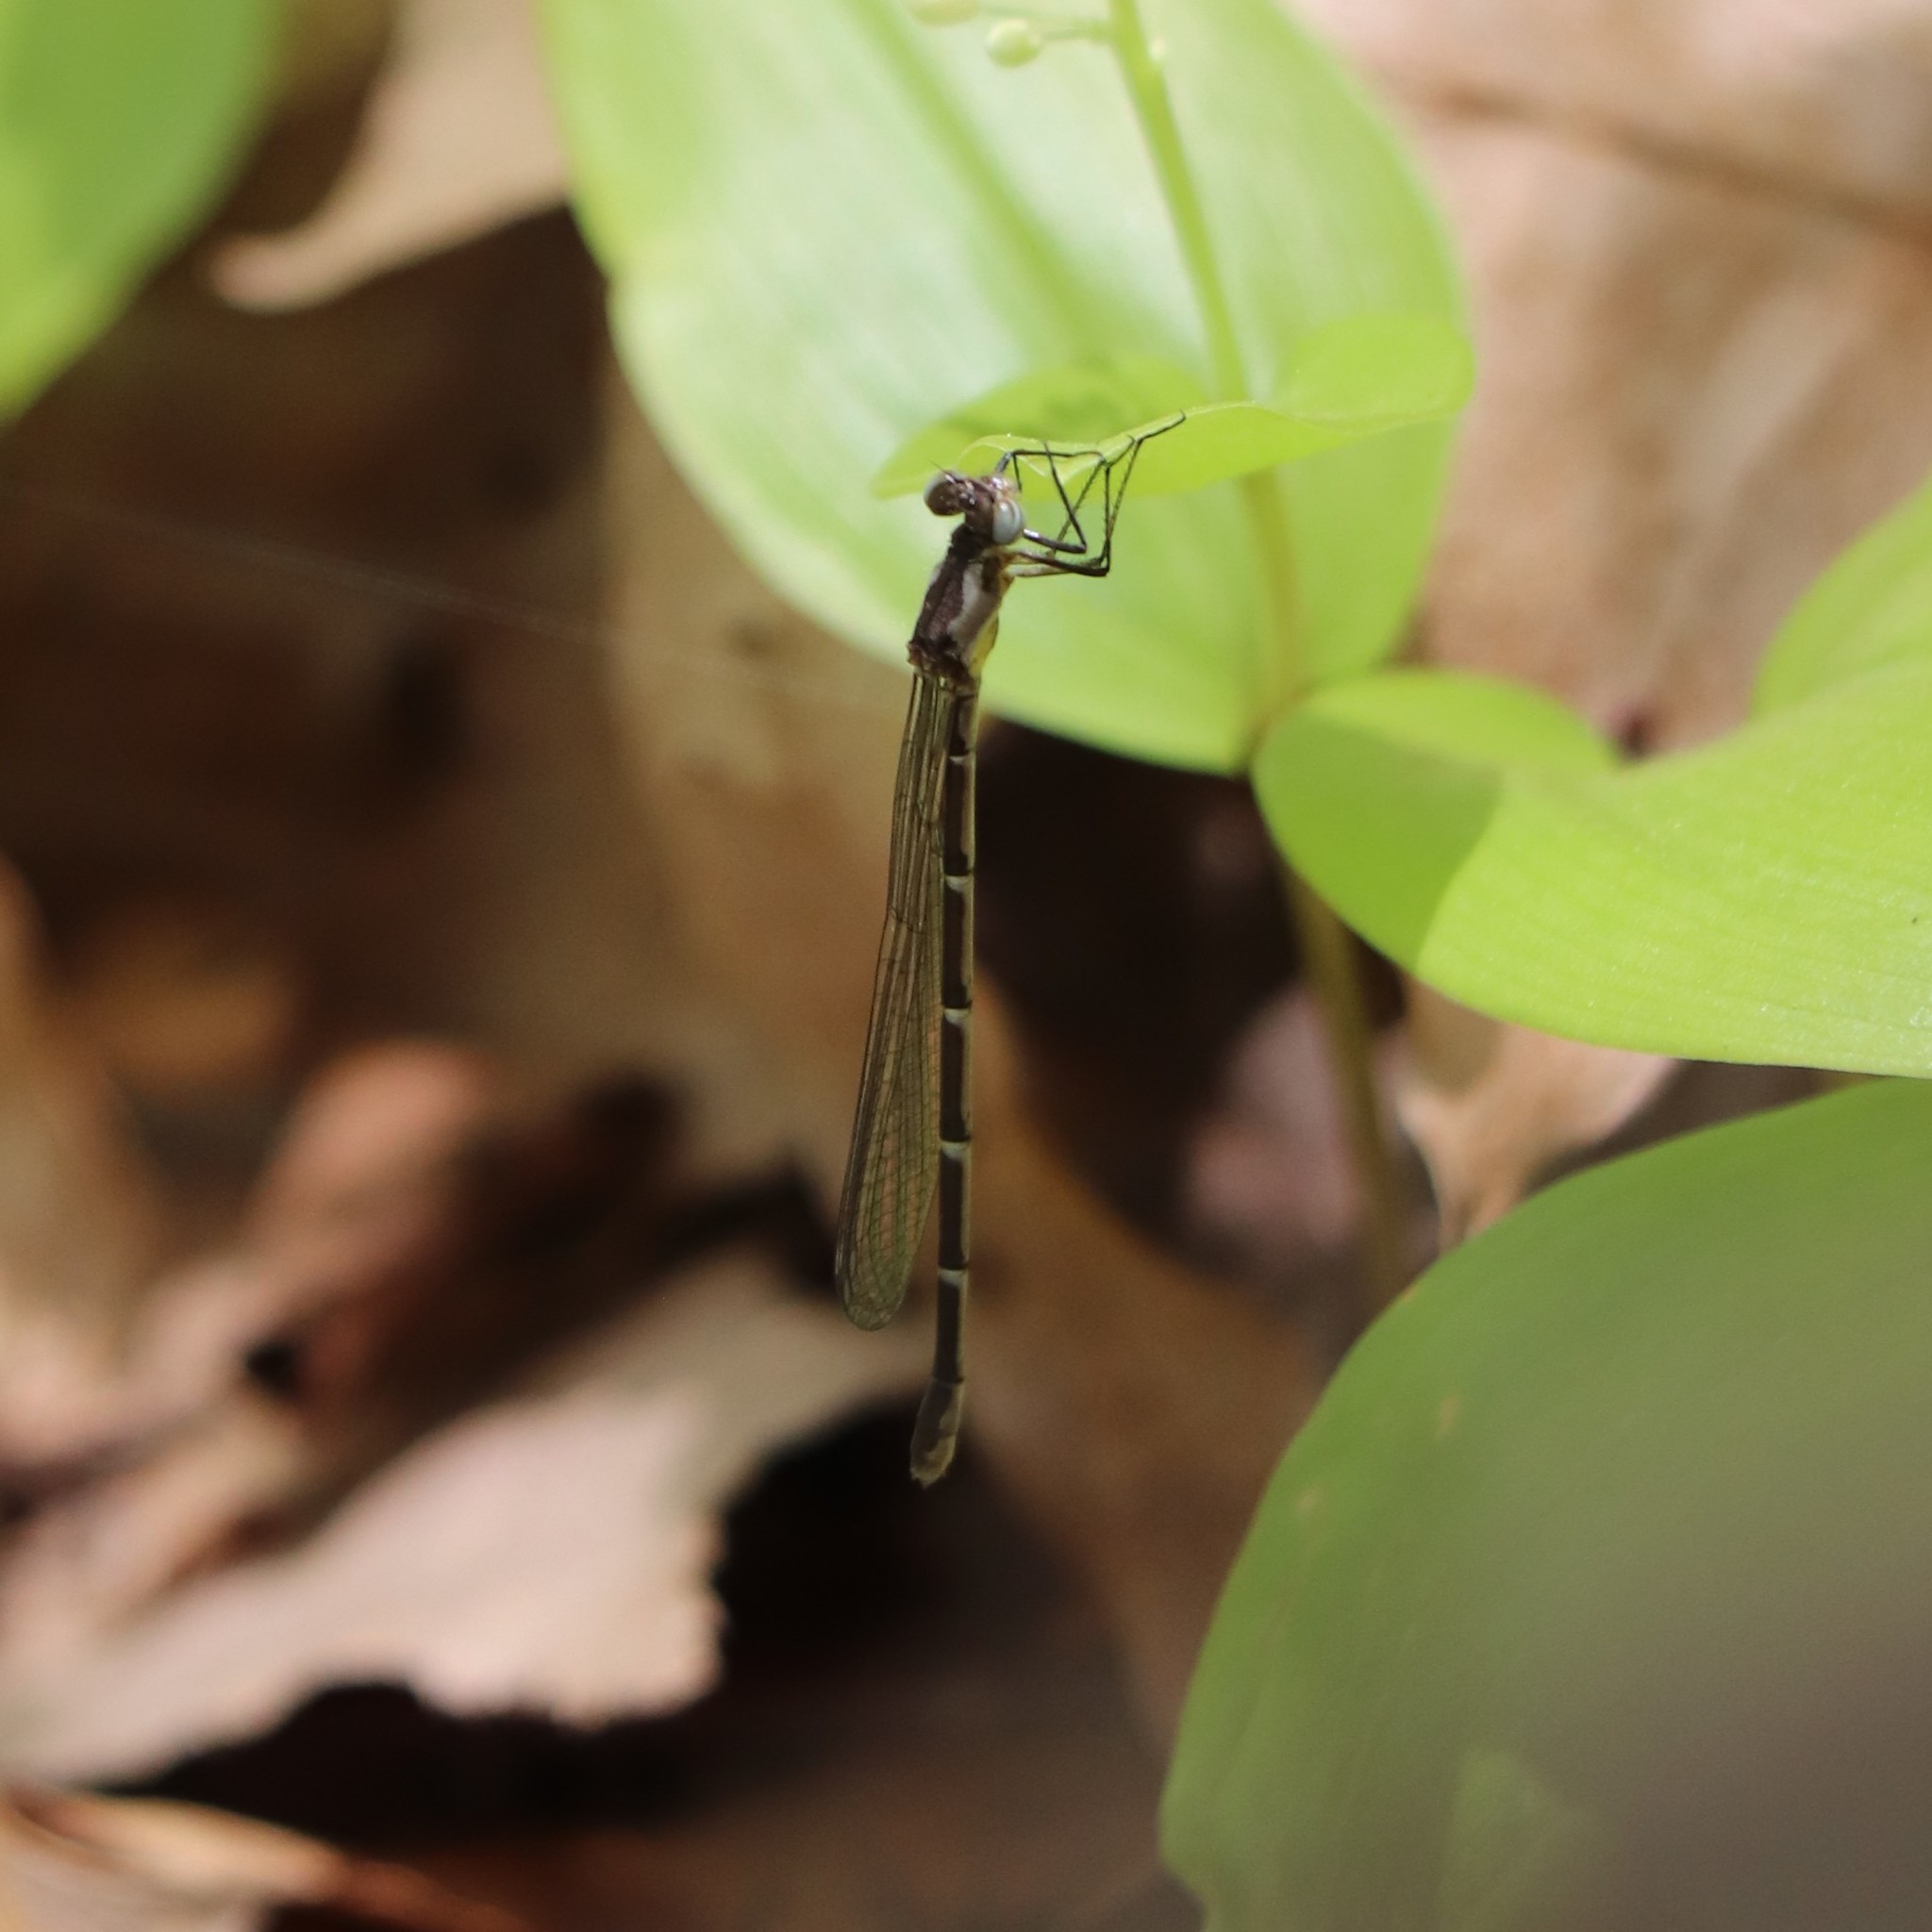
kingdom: Animalia
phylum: Arthropoda
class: Insecta
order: Odonata
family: Coenagrionidae
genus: Chromagrion
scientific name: Chromagrion conditum
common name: Aurora damsel
